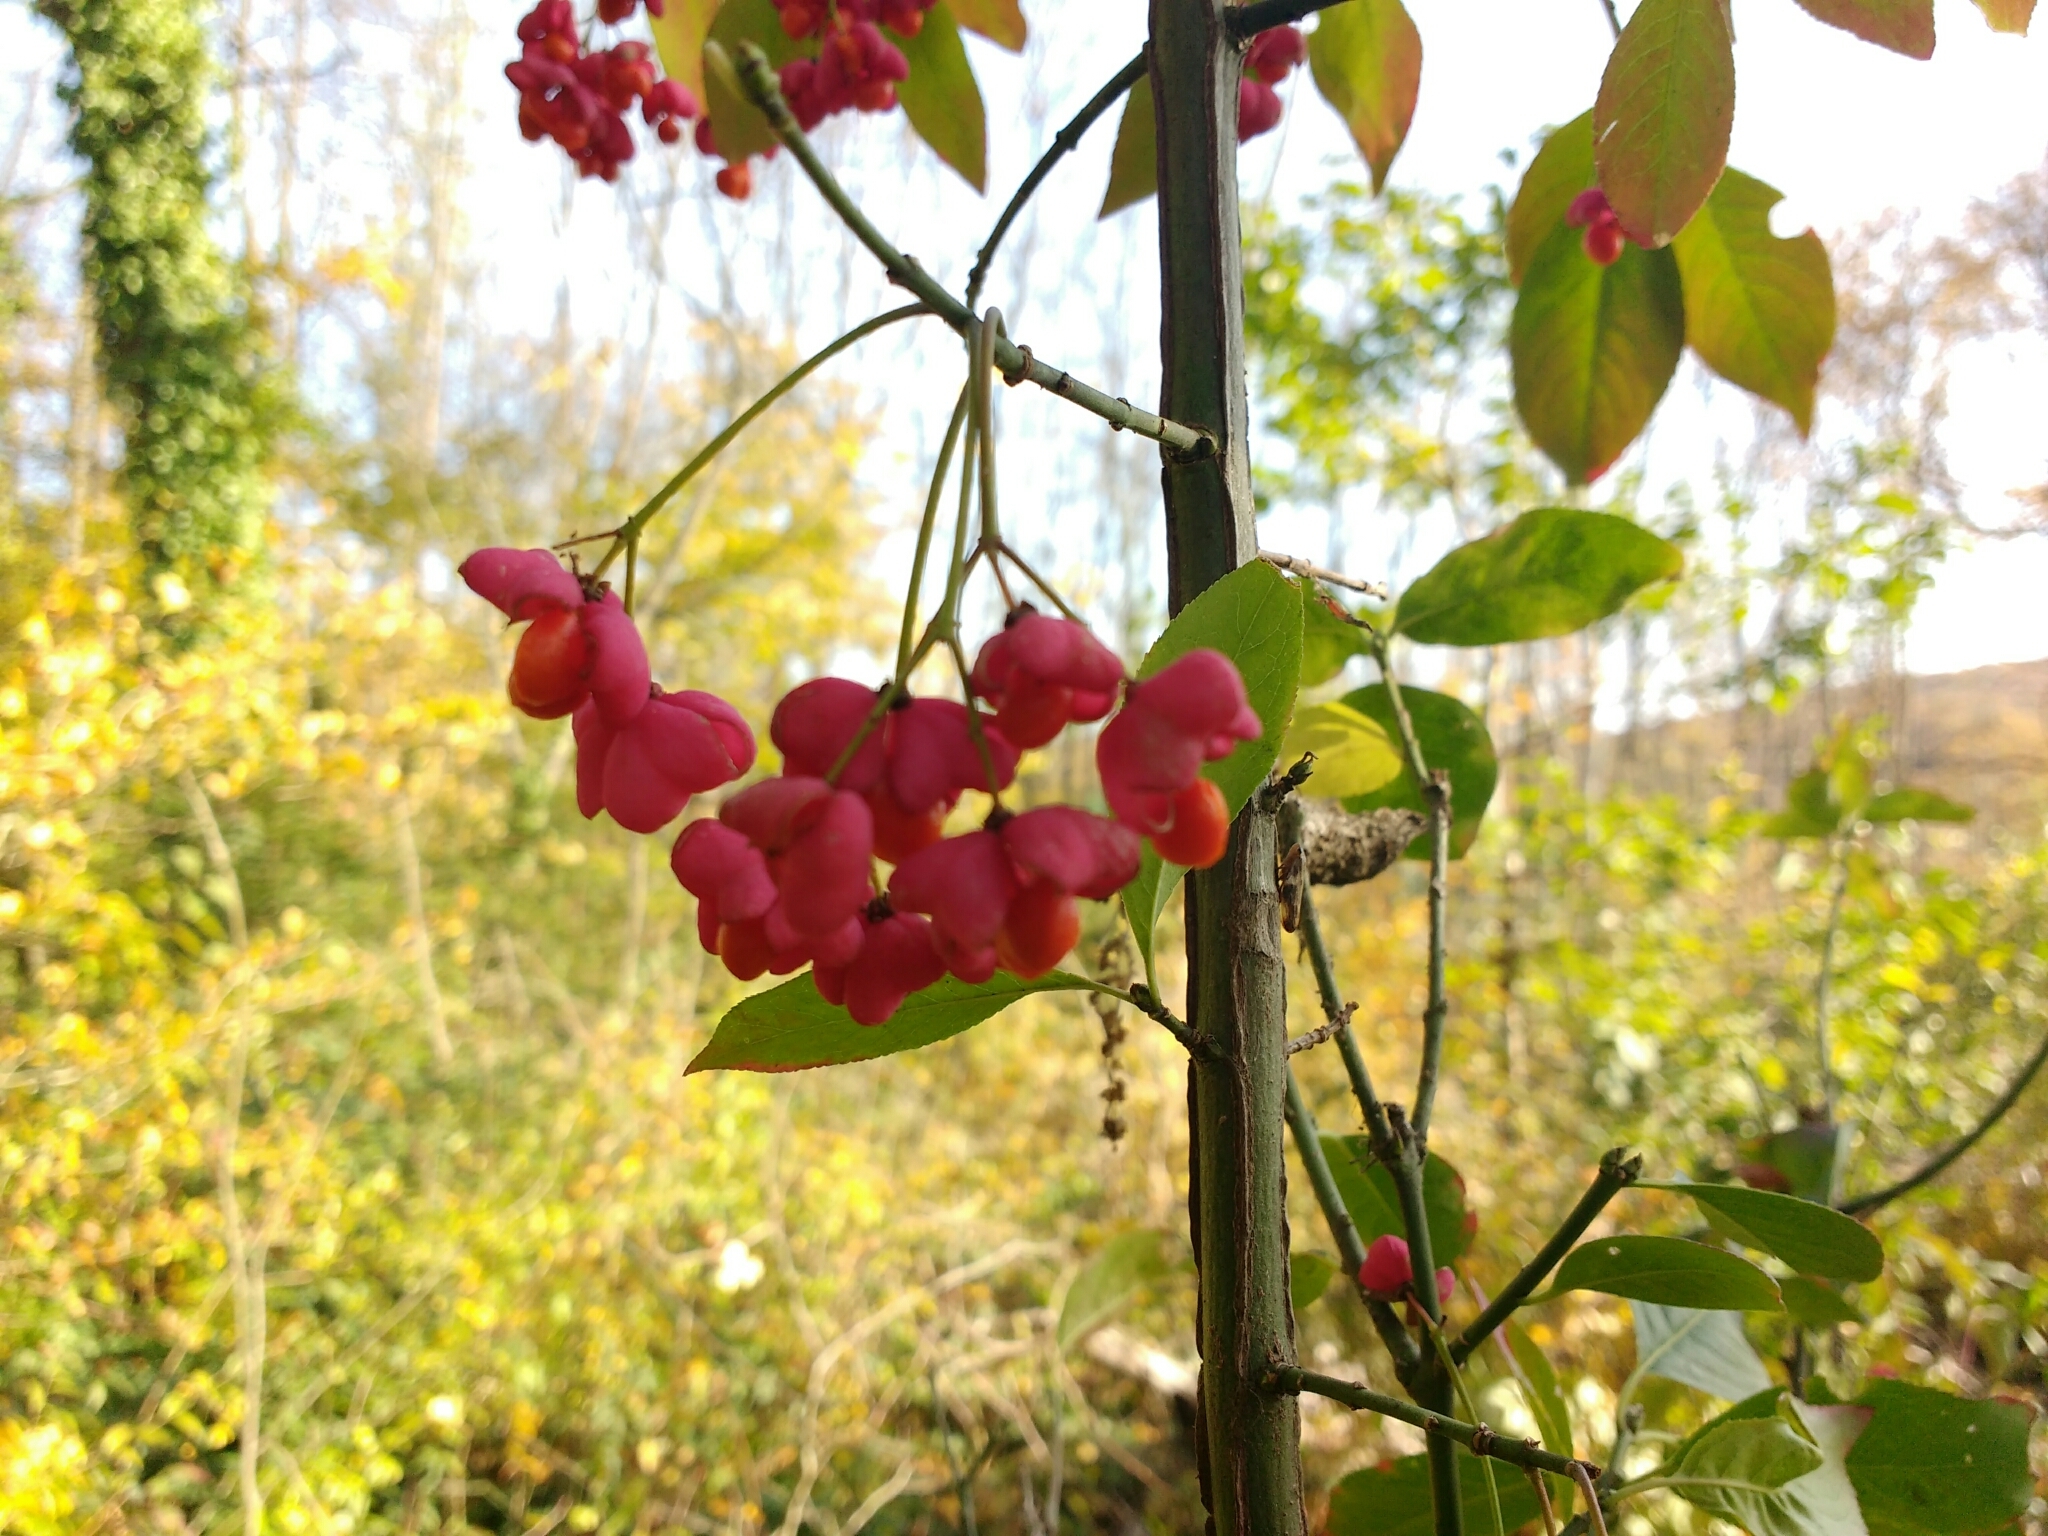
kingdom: Plantae
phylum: Tracheophyta
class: Magnoliopsida
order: Celastrales
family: Celastraceae
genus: Euonymus
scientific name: Euonymus europaeus
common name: Spindle
